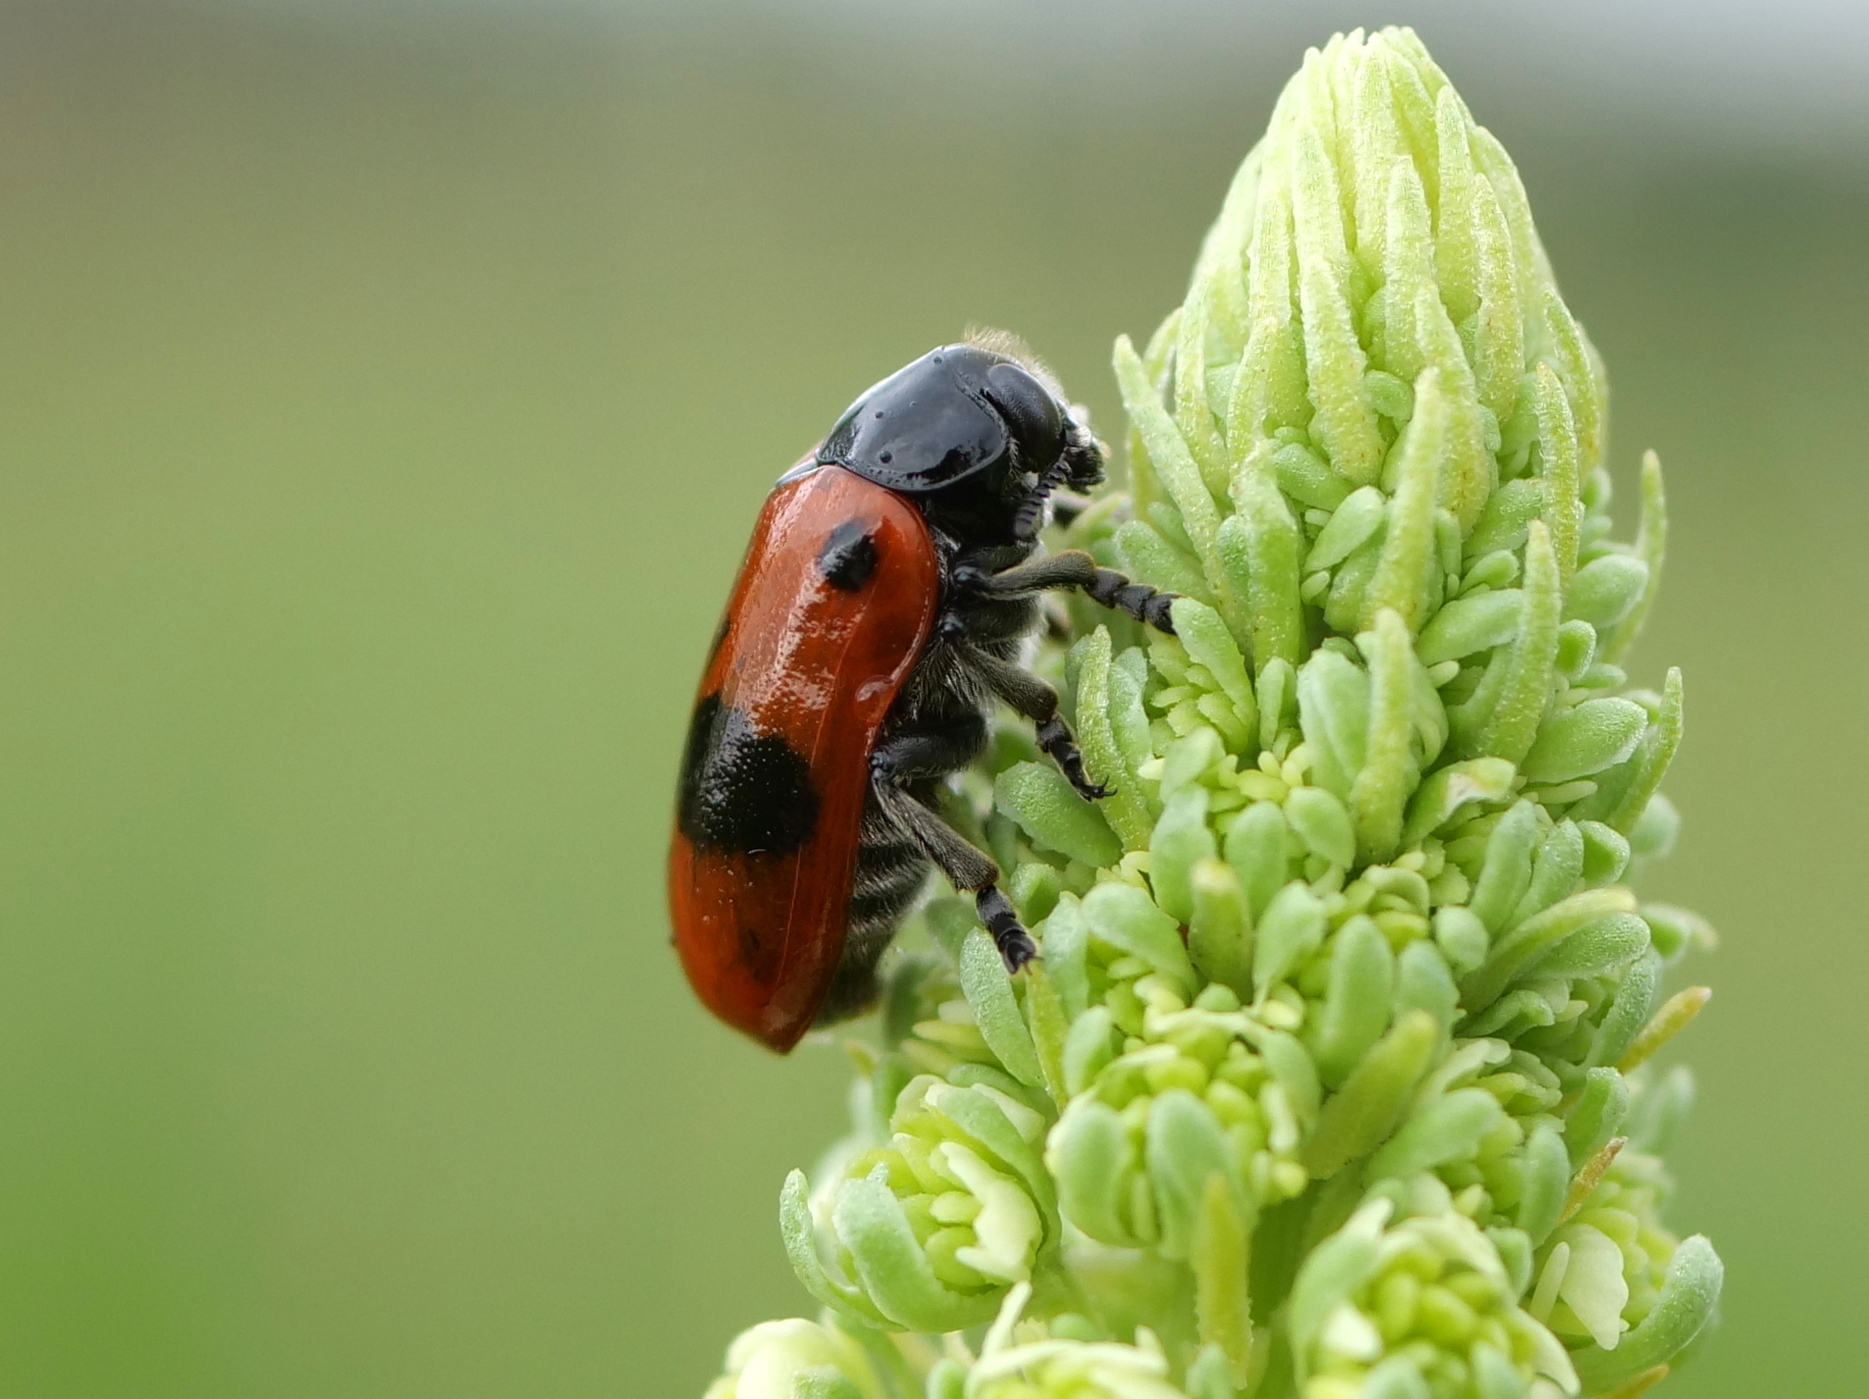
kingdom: Animalia
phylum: Arthropoda
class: Insecta
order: Coleoptera
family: Chrysomelidae
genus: Clytra
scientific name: Clytra laeviuscula
